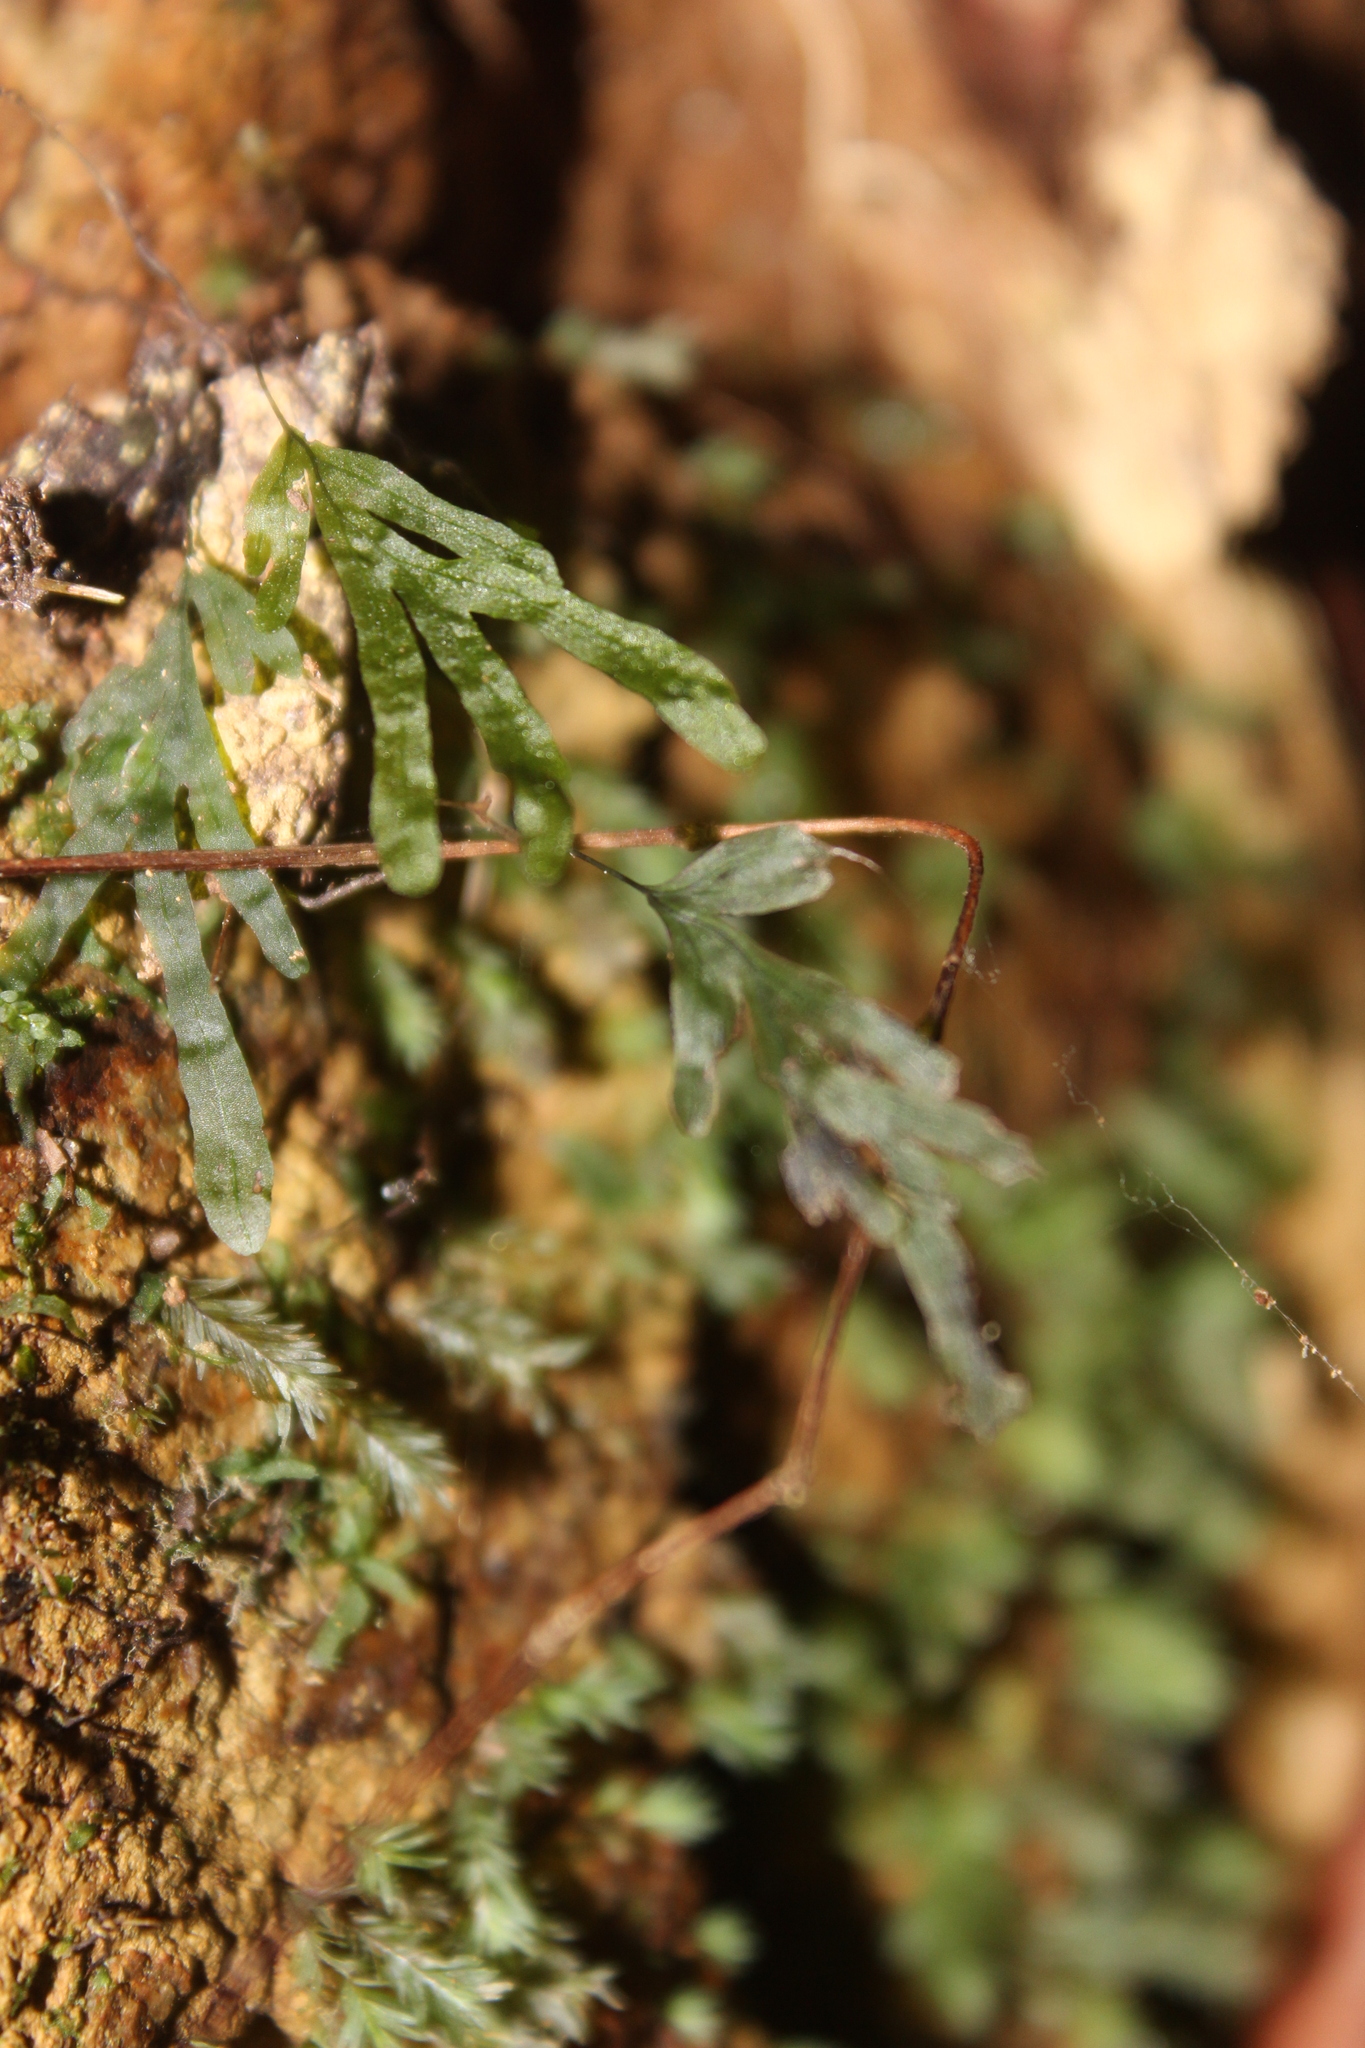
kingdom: Plantae
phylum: Tracheophyta
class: Polypodiopsida
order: Hymenophyllales
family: Hymenophyllaceae
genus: Polyphlebium
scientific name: Polyphlebium endlicherianum
